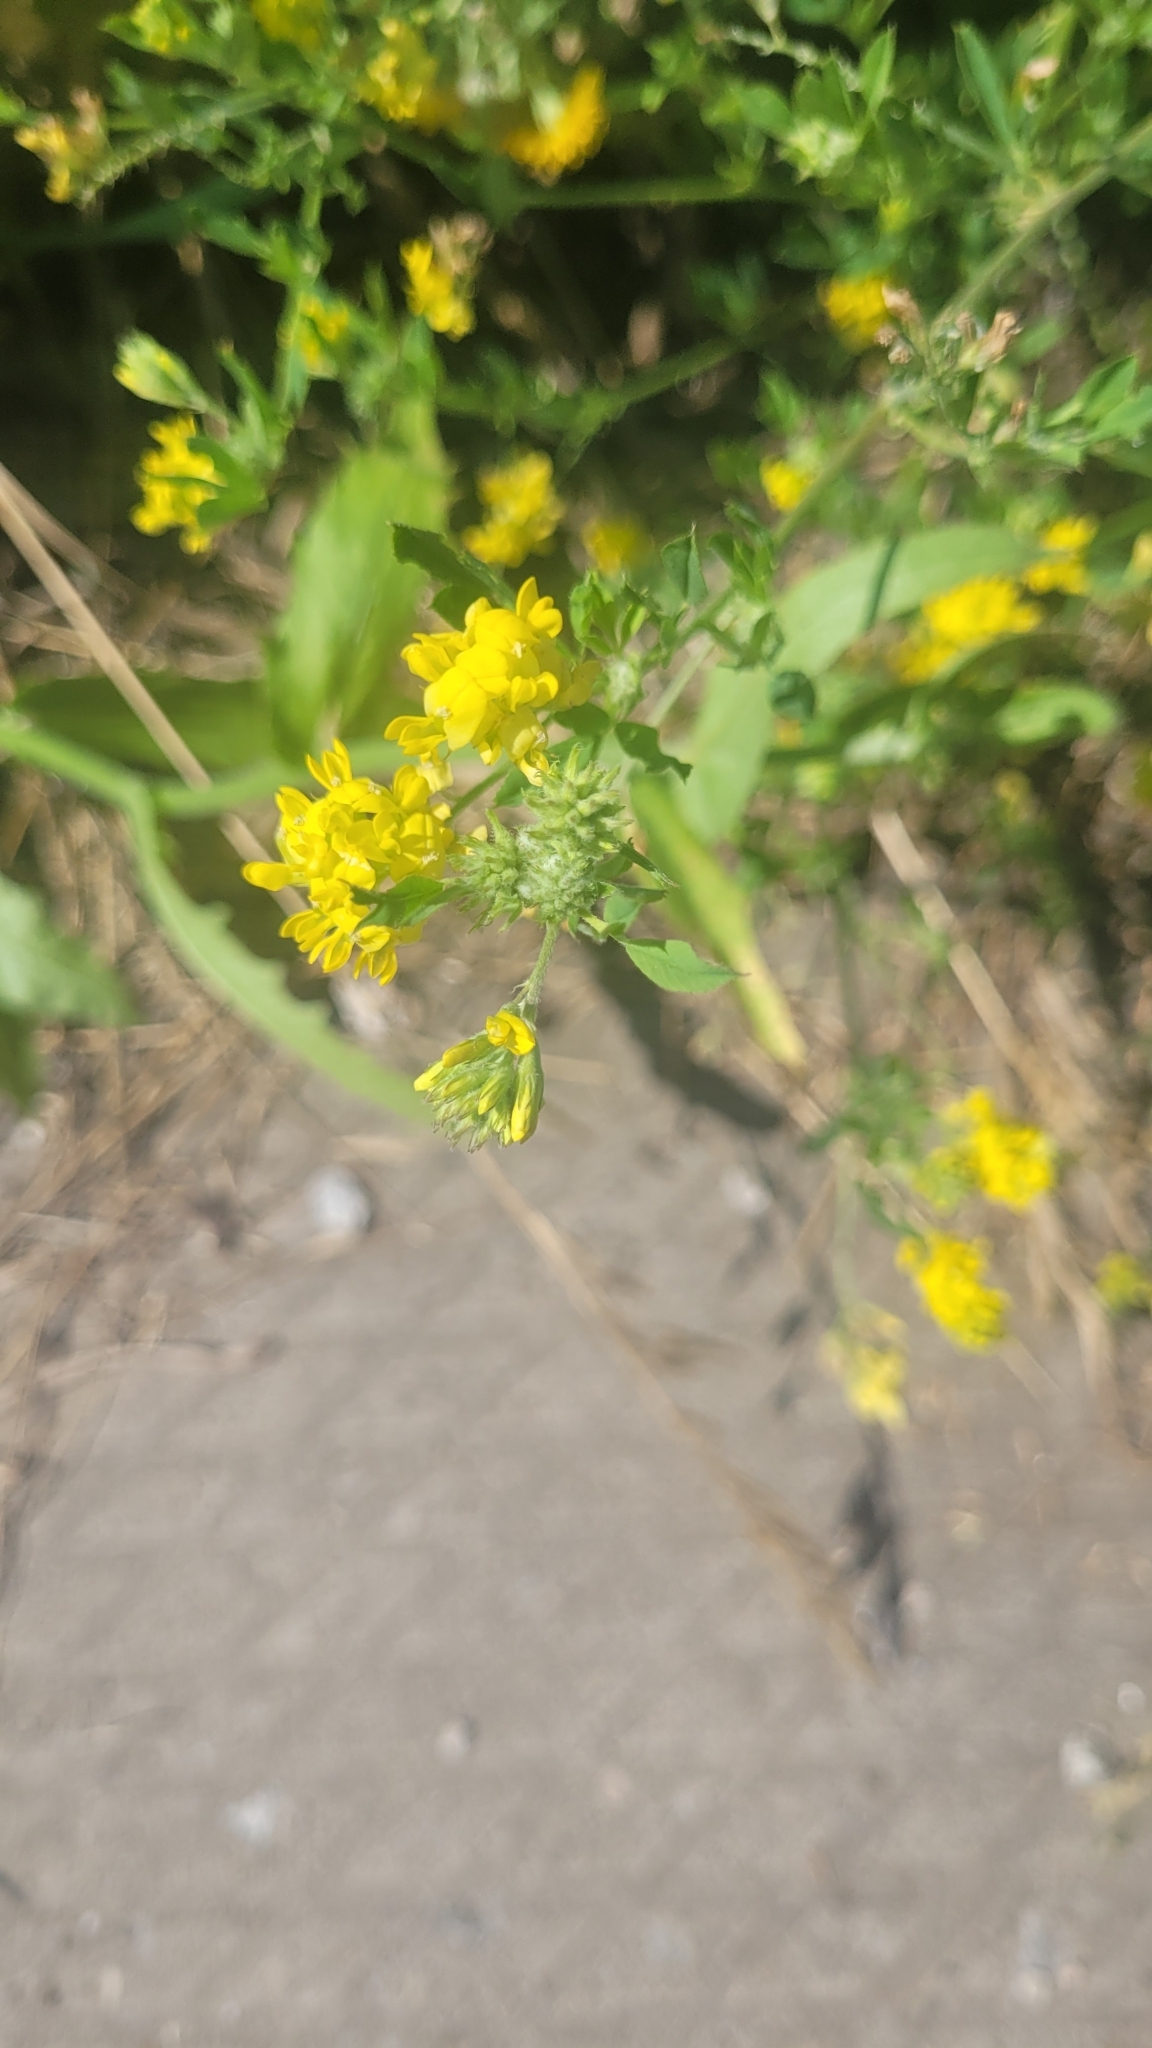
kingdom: Plantae
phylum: Tracheophyta
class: Magnoliopsida
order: Fabales
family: Fabaceae
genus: Medicago
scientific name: Medicago falcata
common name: Sickle medick
